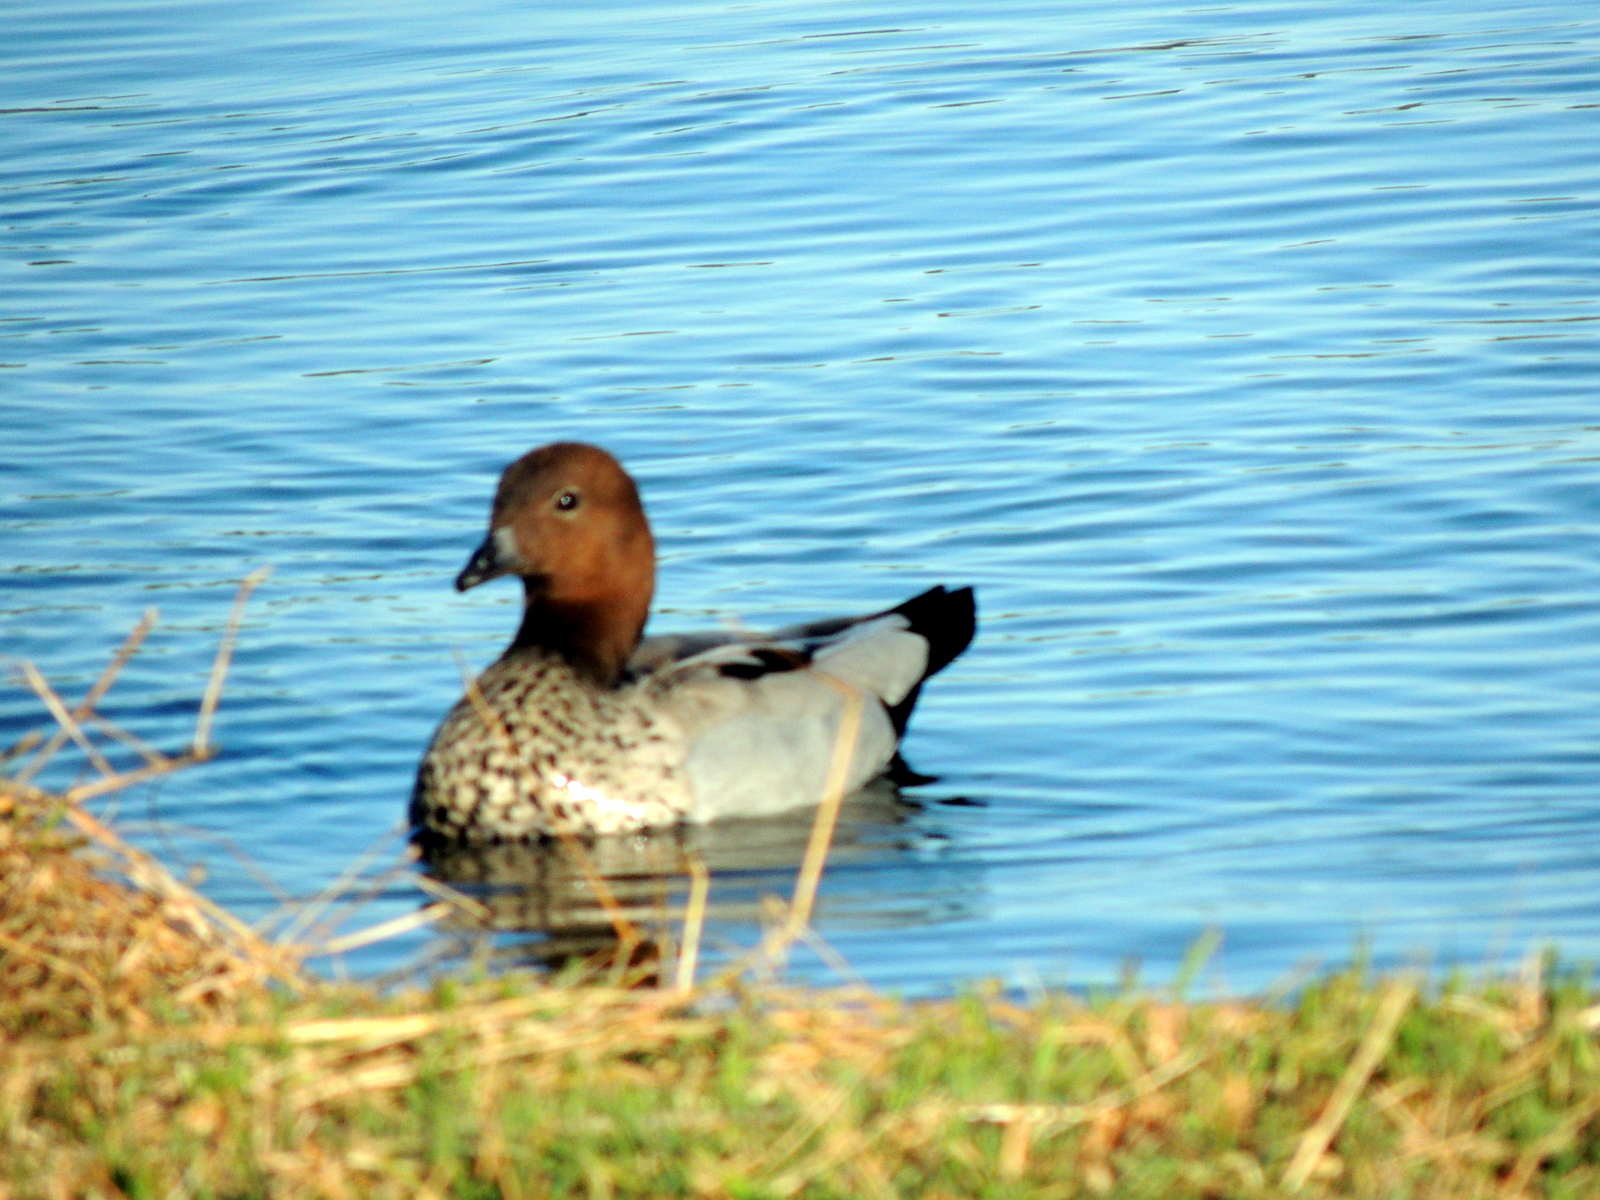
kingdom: Animalia
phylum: Chordata
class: Aves
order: Anseriformes
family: Anatidae
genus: Chenonetta
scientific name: Chenonetta jubata
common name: Maned duck
